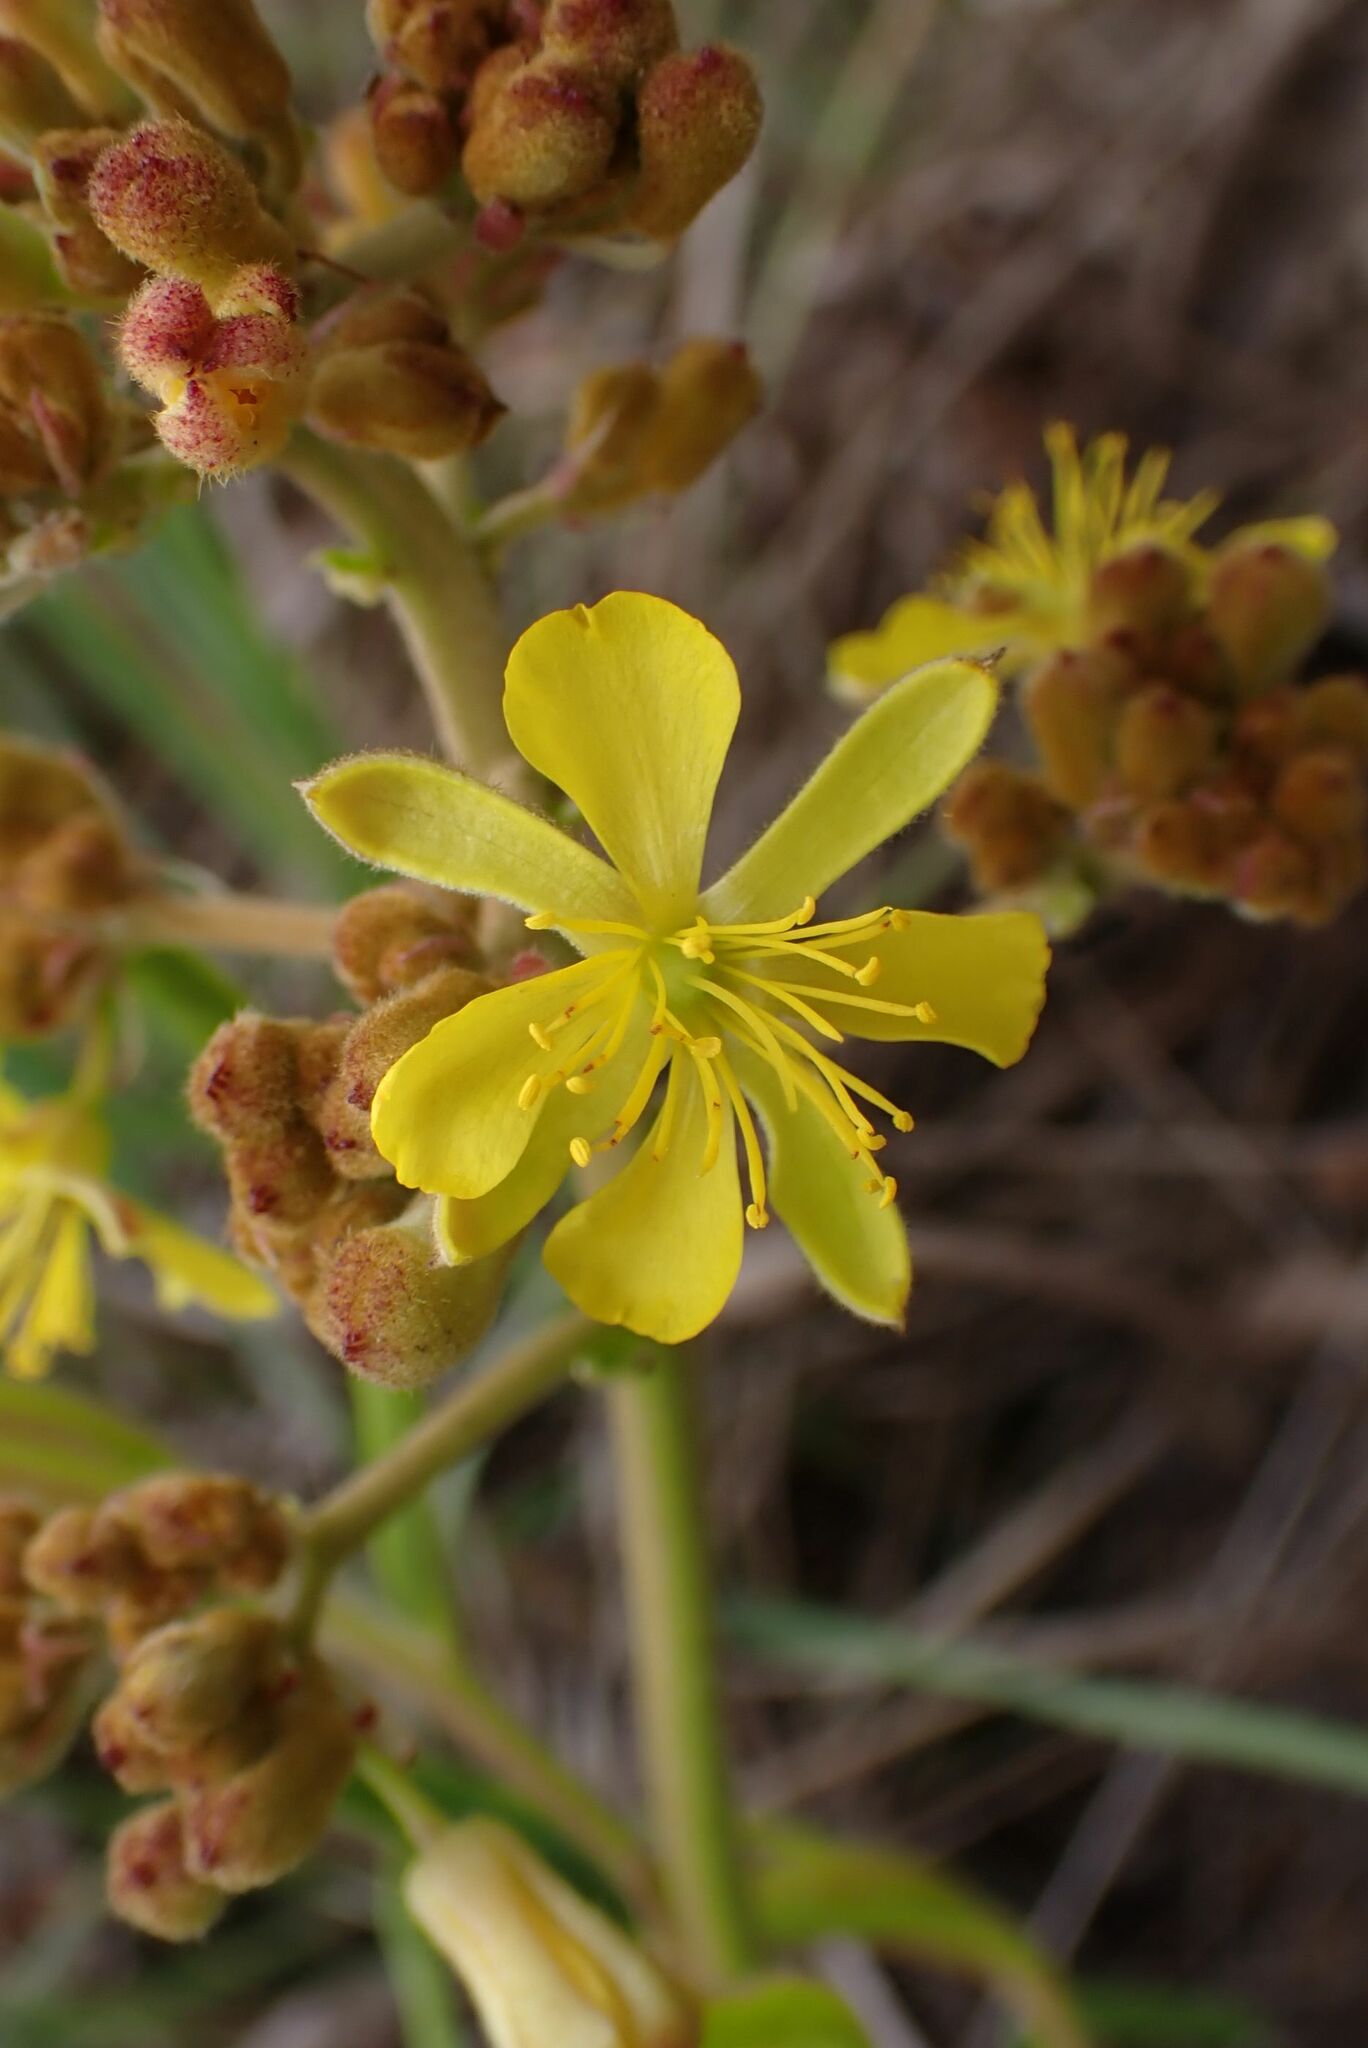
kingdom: Plantae
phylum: Tracheophyta
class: Magnoliopsida
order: Malvales
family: Malvaceae
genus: Triumfetta
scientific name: Triumfetta welwitschii
